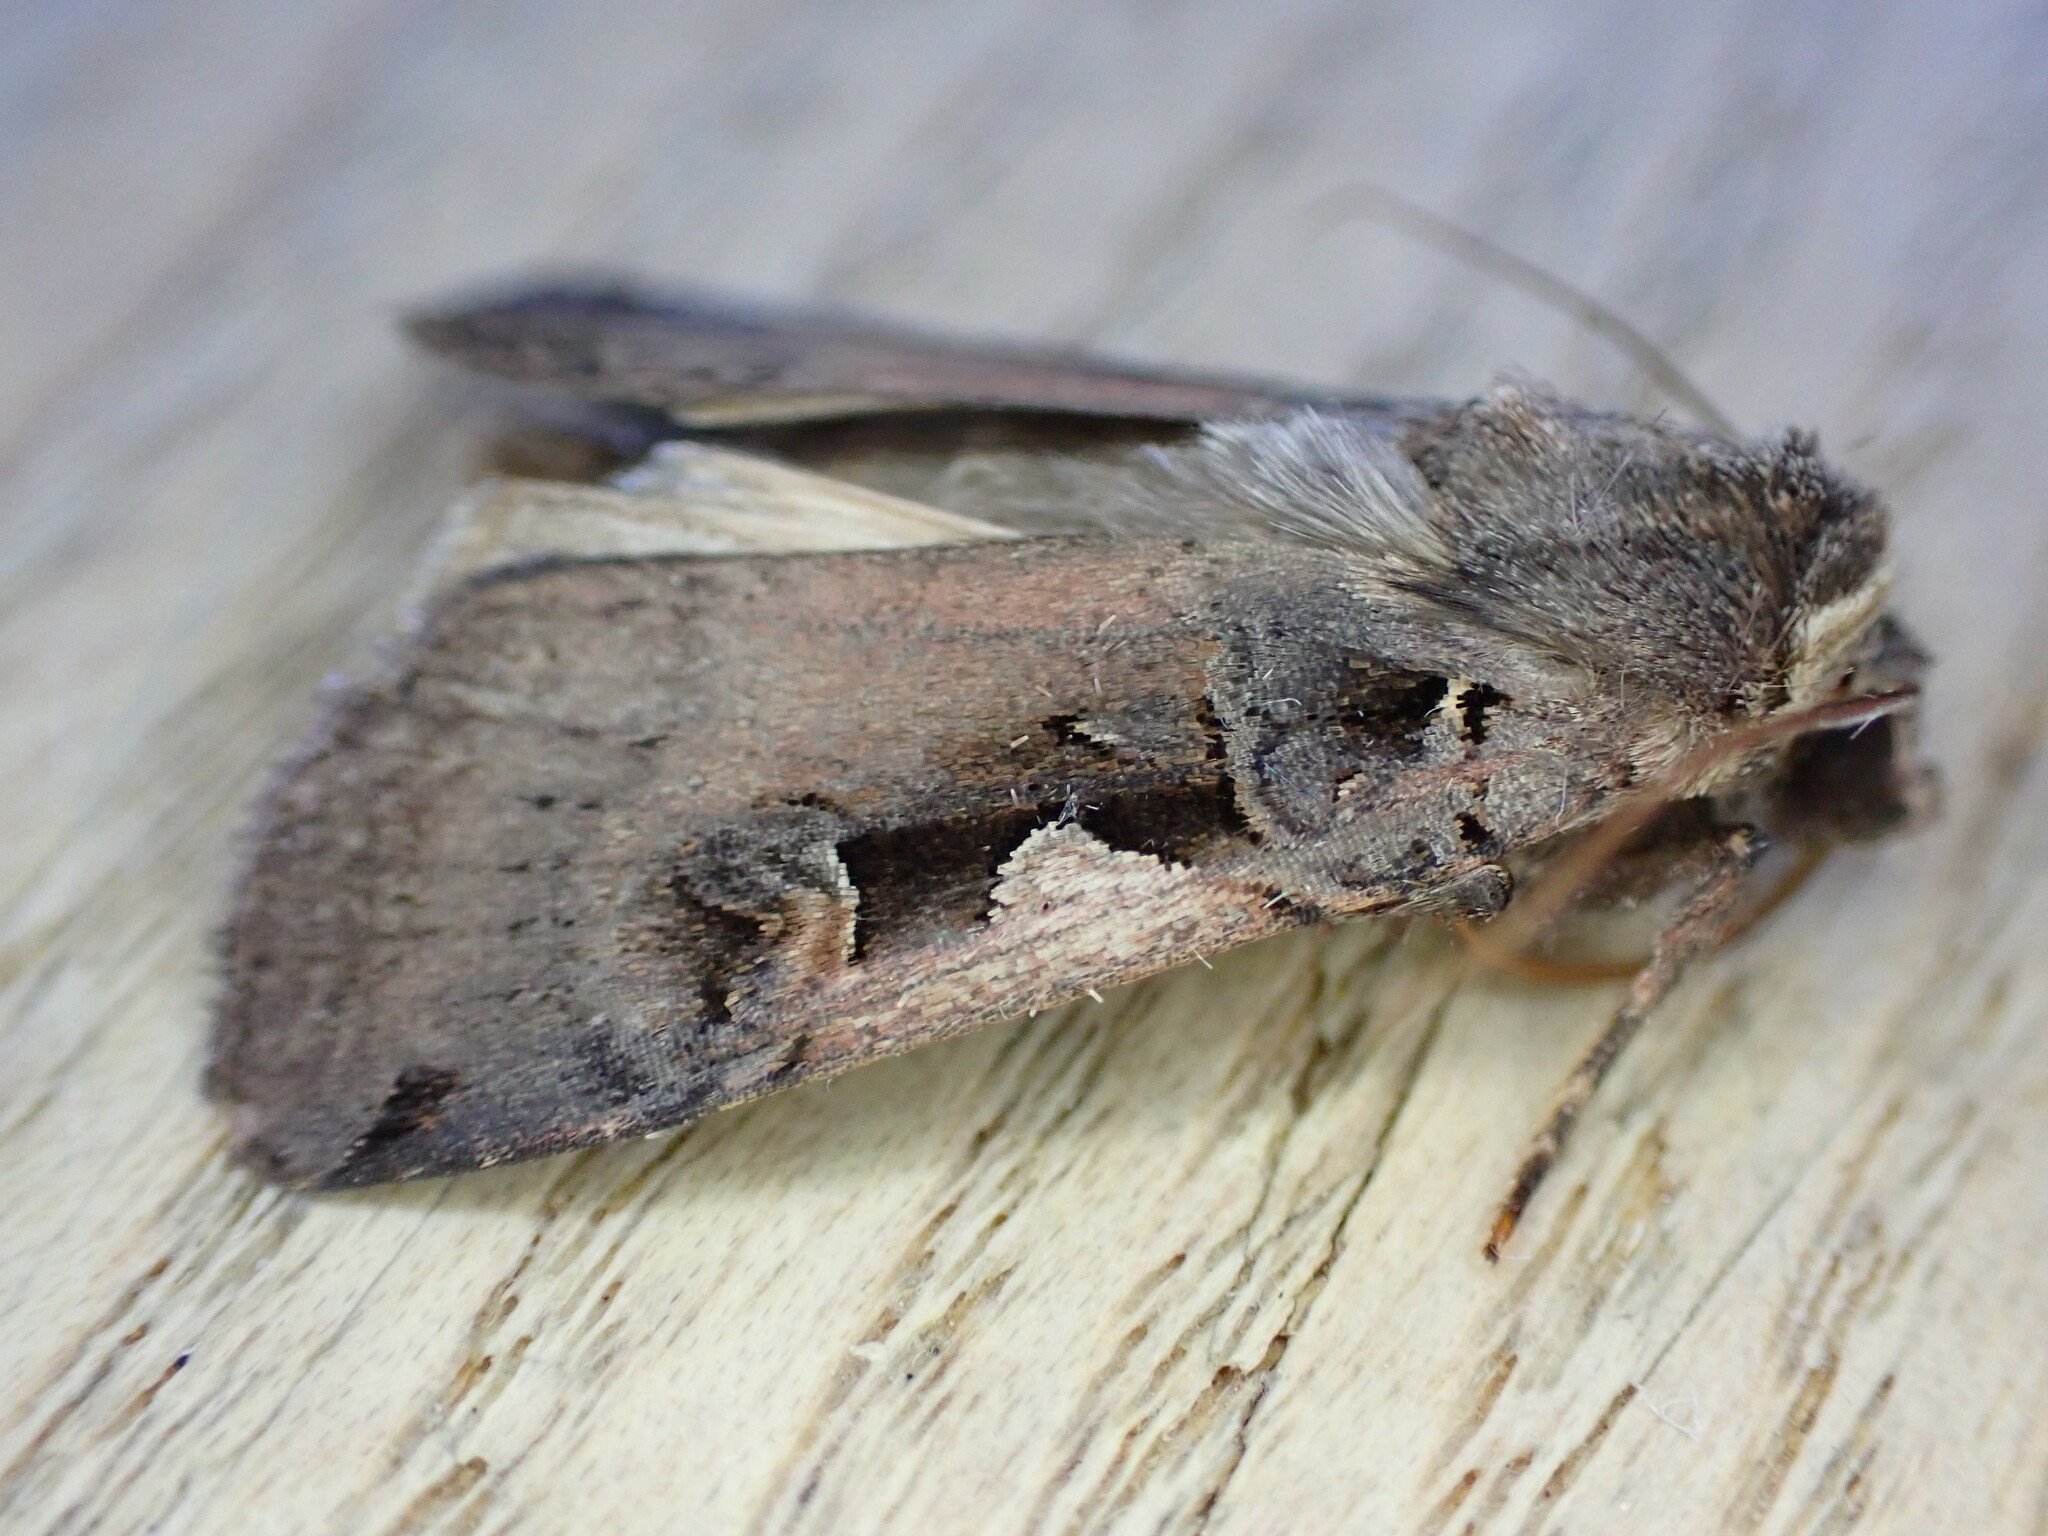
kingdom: Animalia
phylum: Arthropoda
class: Insecta
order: Lepidoptera
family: Noctuidae
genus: Xestia
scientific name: Xestia c-nigrum
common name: Setaceous hebrew character
